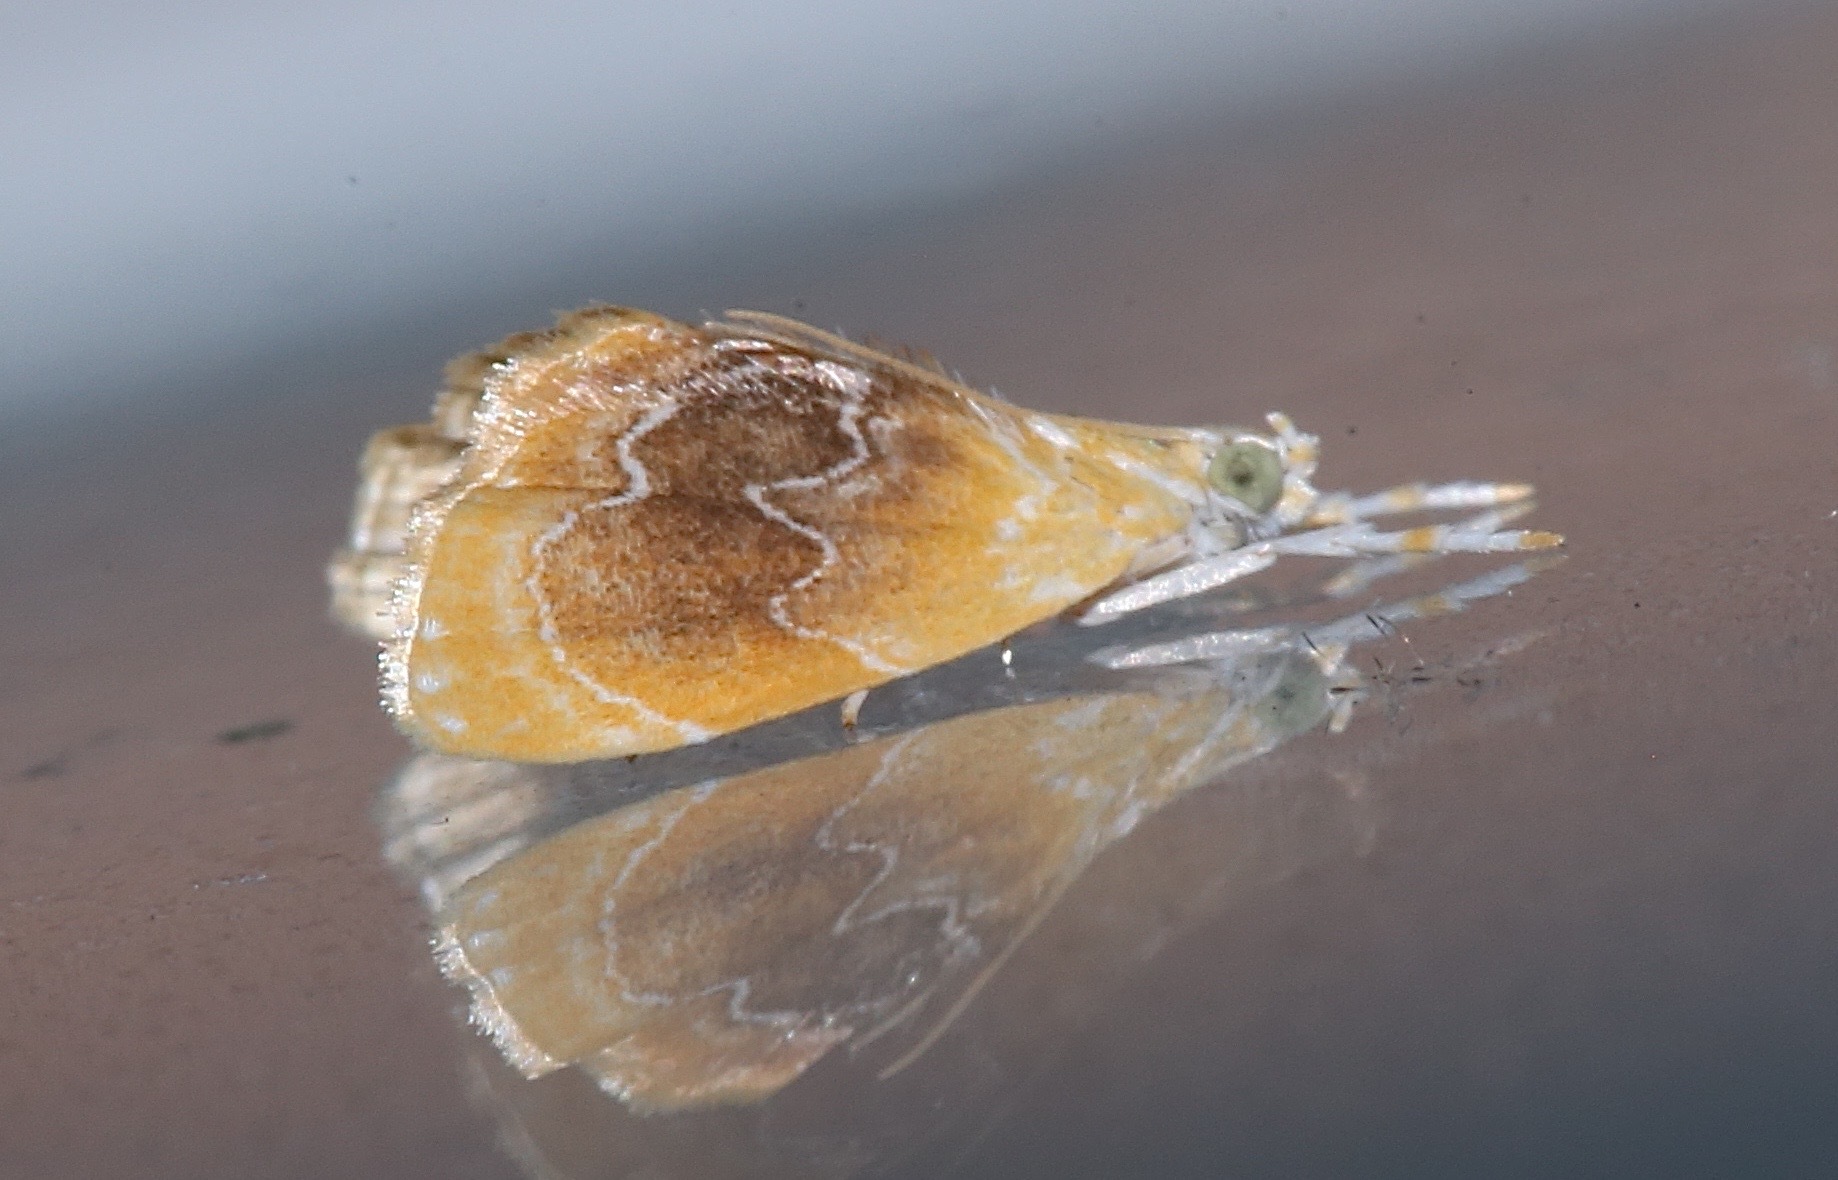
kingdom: Animalia
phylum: Arthropoda
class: Insecta
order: Lepidoptera
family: Crambidae
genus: Glaphyria
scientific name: Glaphyria fulminalis
